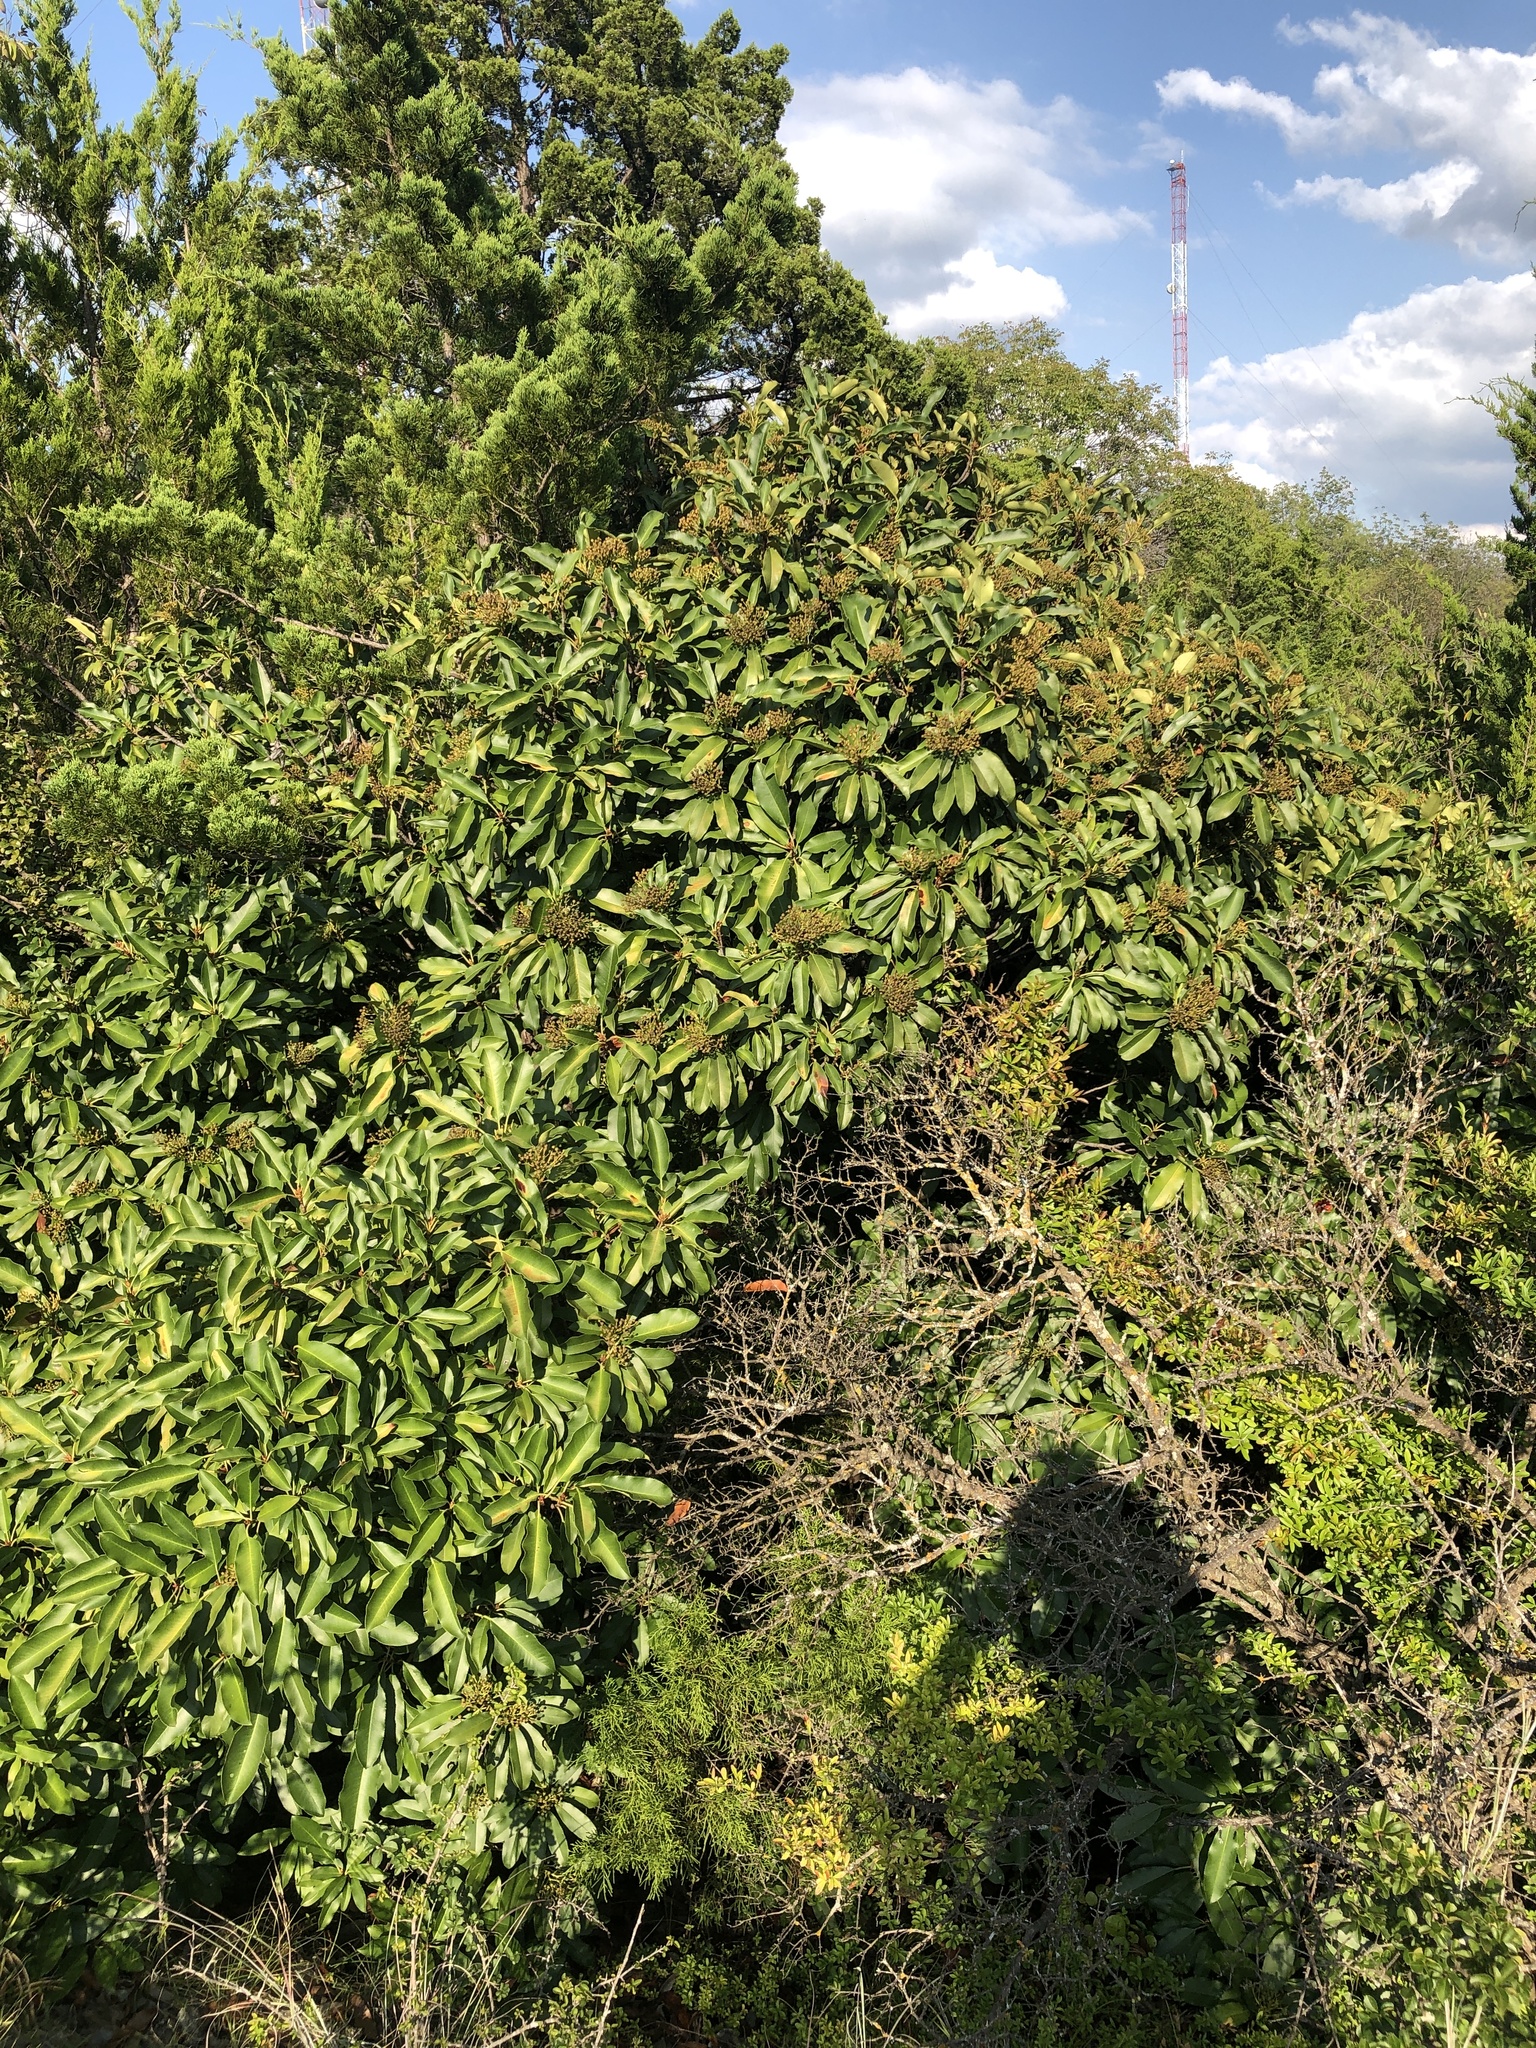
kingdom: Plantae
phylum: Tracheophyta
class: Magnoliopsida
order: Rosales
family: Rosaceae
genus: Photinia
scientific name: Photinia serratifolia
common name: Taiwanese photinia
